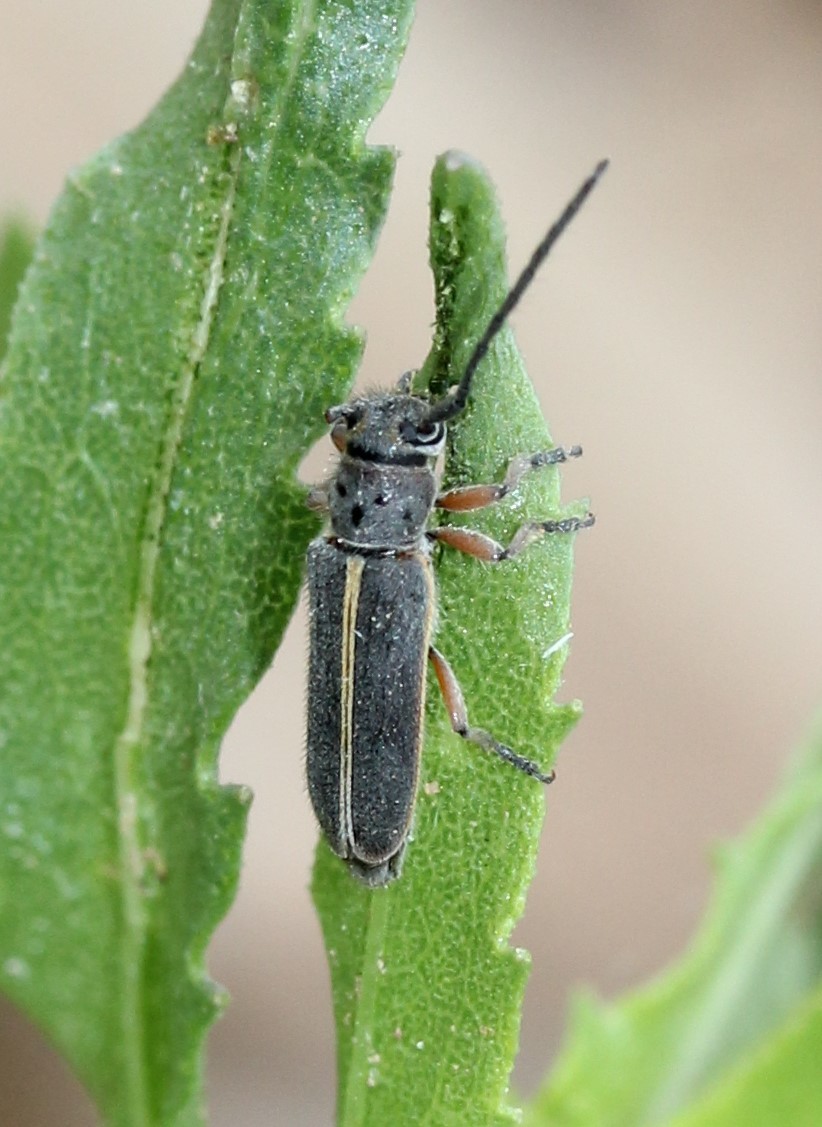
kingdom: Animalia
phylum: Arthropoda
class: Insecta
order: Coleoptera
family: Cerambycidae
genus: Mecas
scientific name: Mecas pergrata
